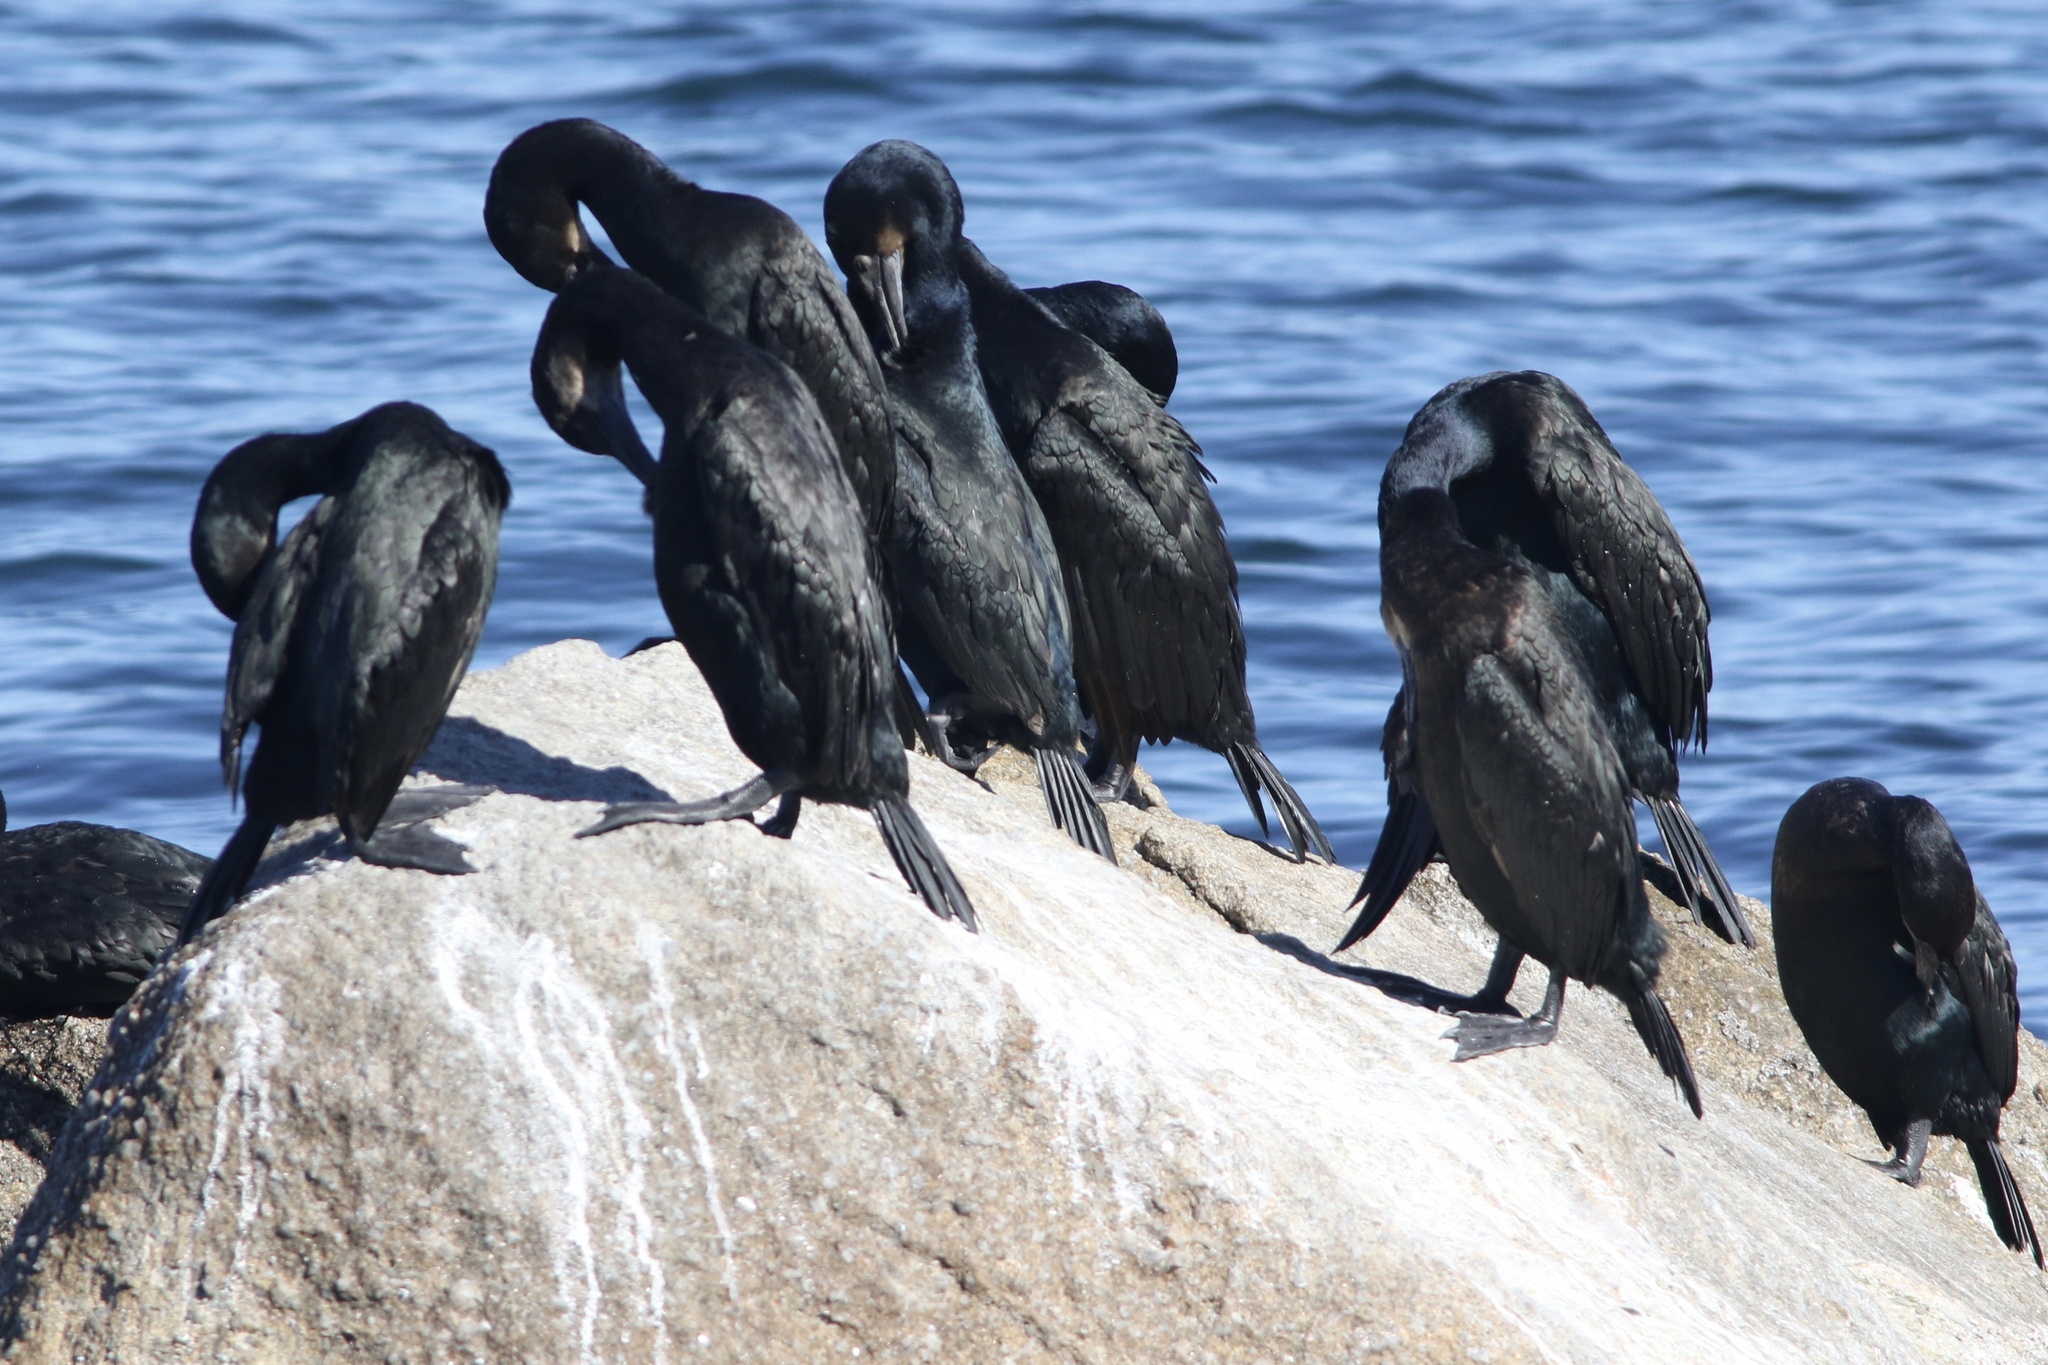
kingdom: Animalia
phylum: Chordata
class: Aves
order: Suliformes
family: Phalacrocoracidae
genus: Urile
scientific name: Urile penicillatus
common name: Brandt's cormorant
